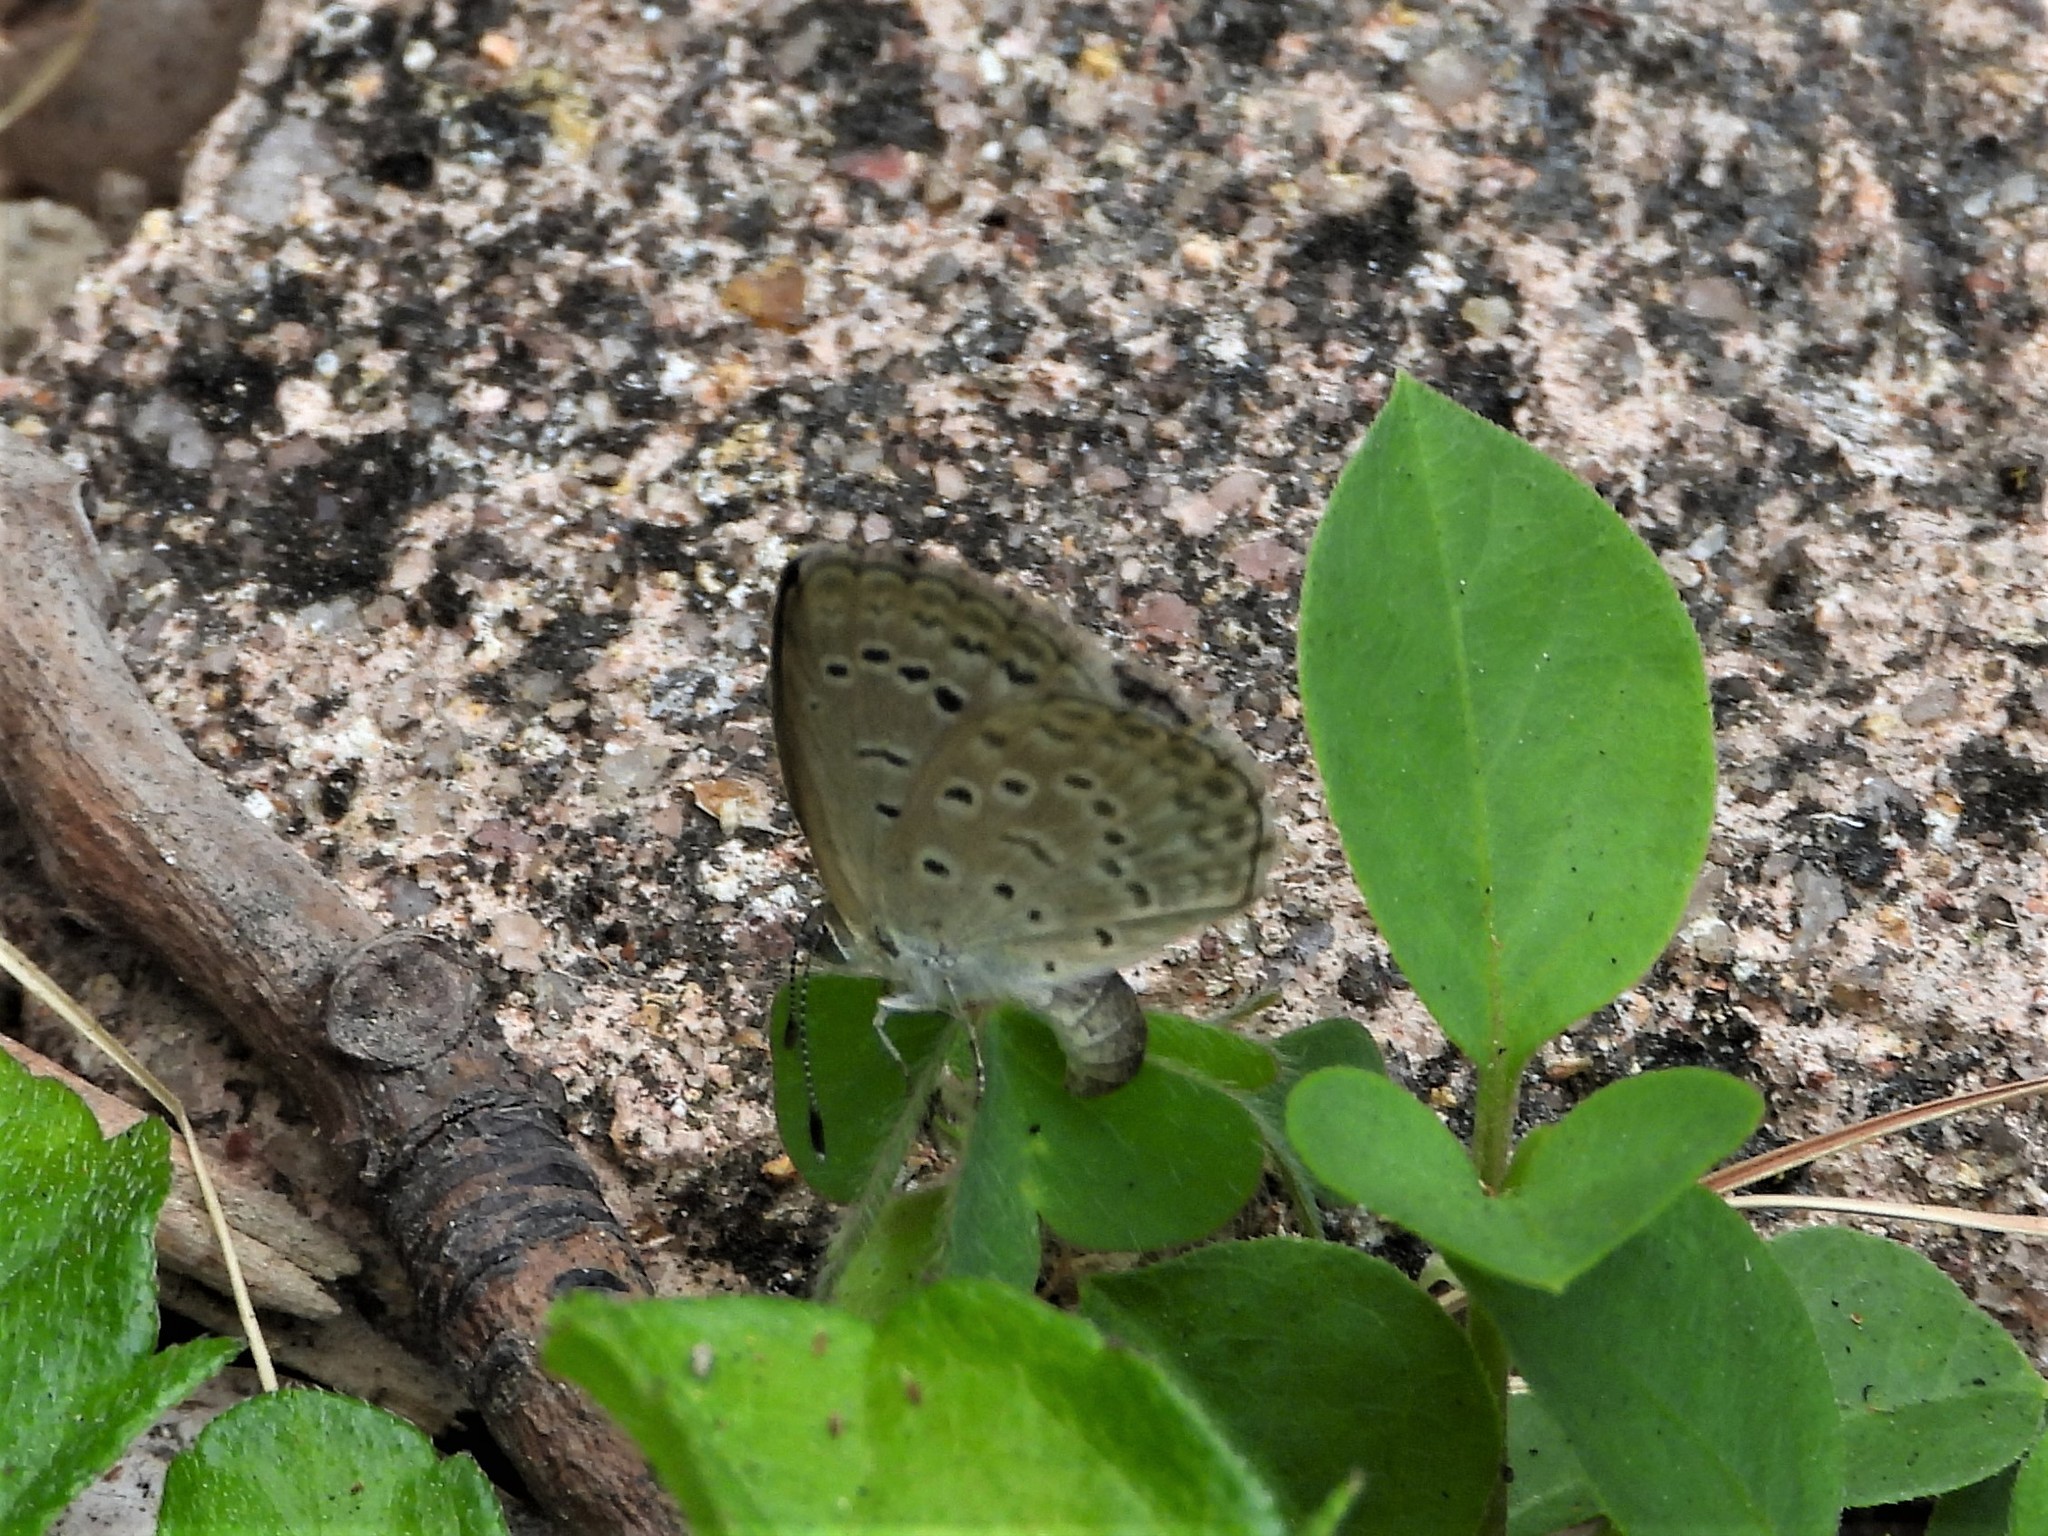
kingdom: Animalia
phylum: Arthropoda
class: Insecta
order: Lepidoptera
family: Lycaenidae
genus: Pseudozizeeria
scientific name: Pseudozizeeria maha
